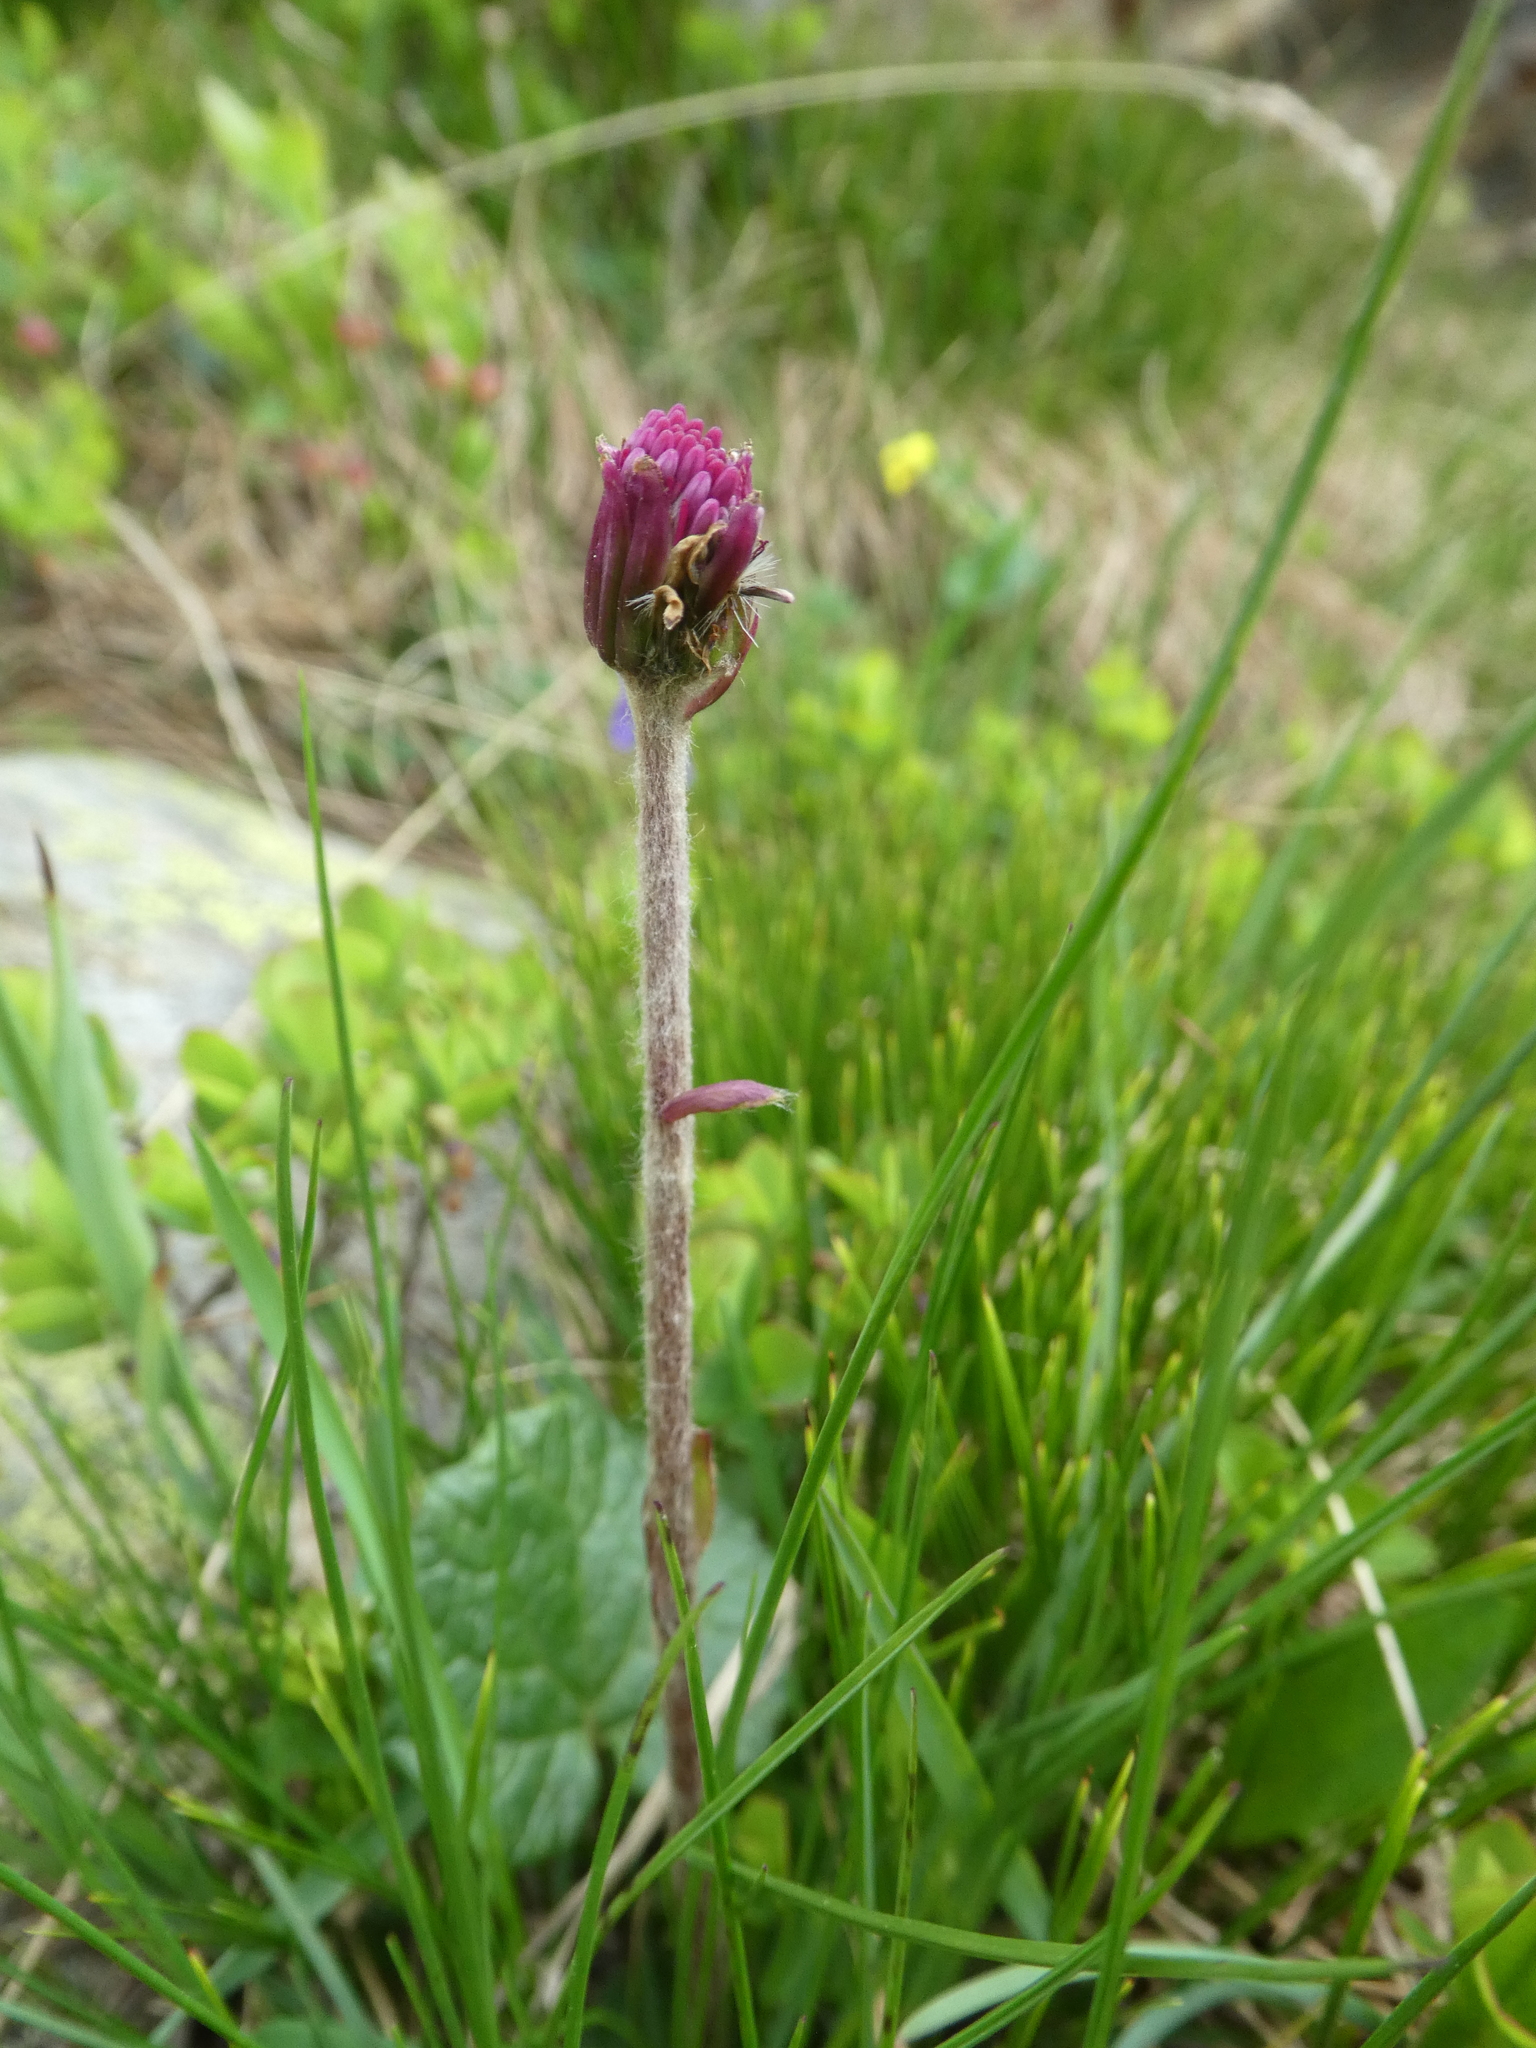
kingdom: Plantae
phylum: Tracheophyta
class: Magnoliopsida
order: Asterales
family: Asteraceae
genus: Homogyne
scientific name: Homogyne alpina
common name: Purple colt's-foot
